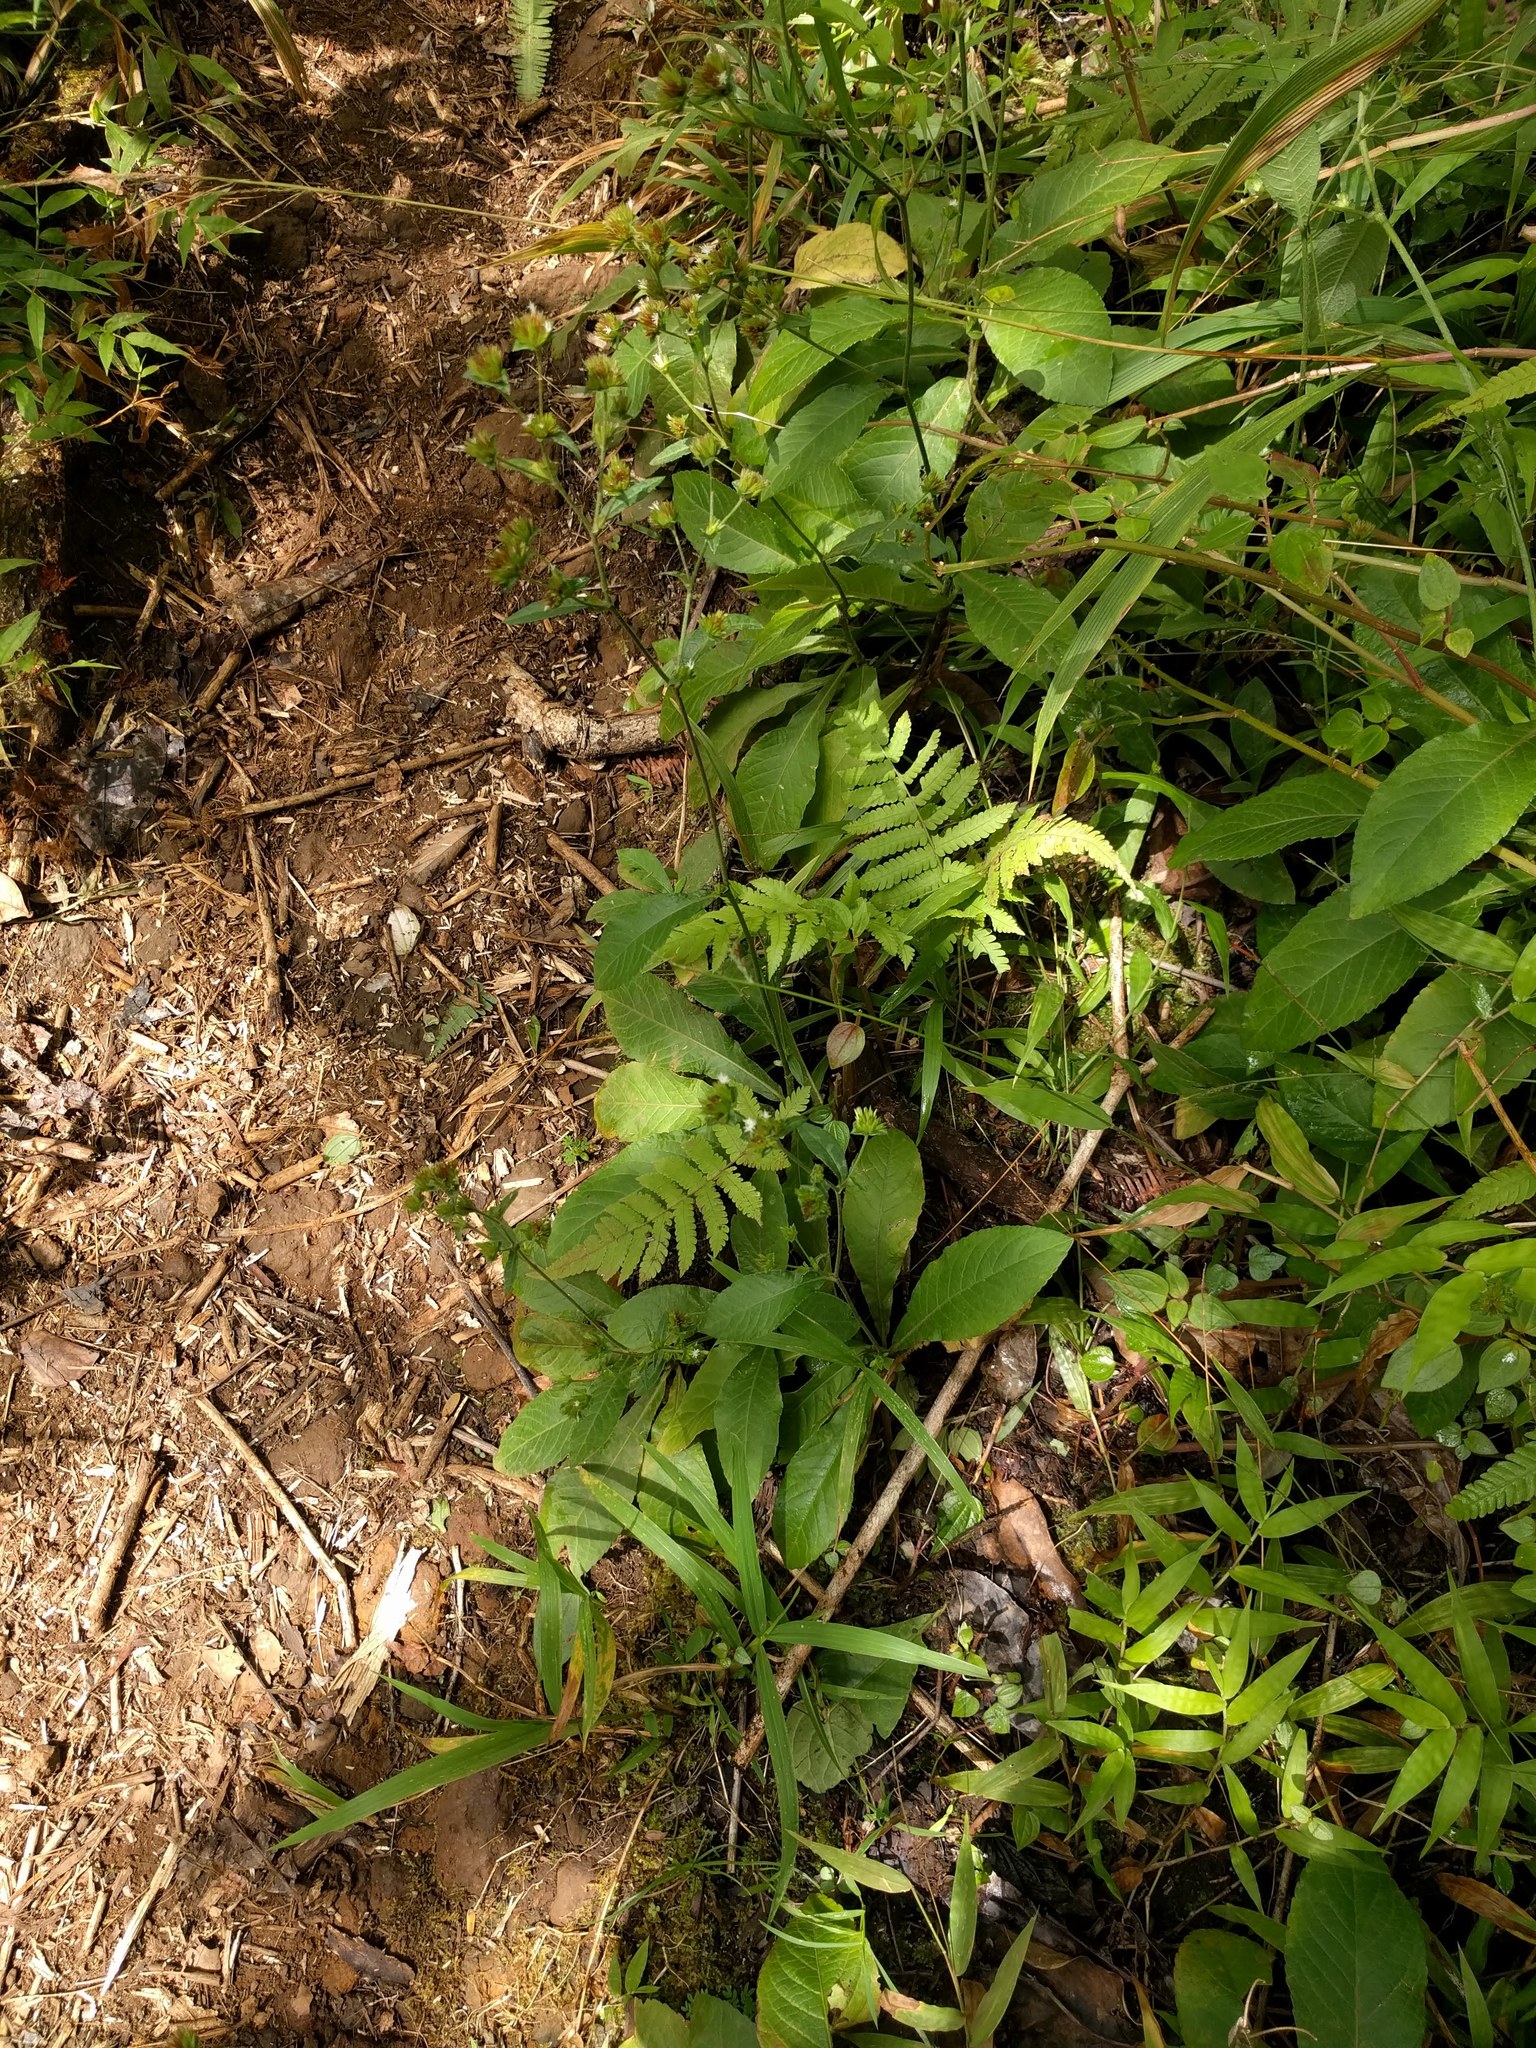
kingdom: Plantae
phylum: Tracheophyta
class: Magnoliopsida
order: Asterales
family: Asteraceae
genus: Elephantopus
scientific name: Elephantopus mollis
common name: Soft elephantsfoot
